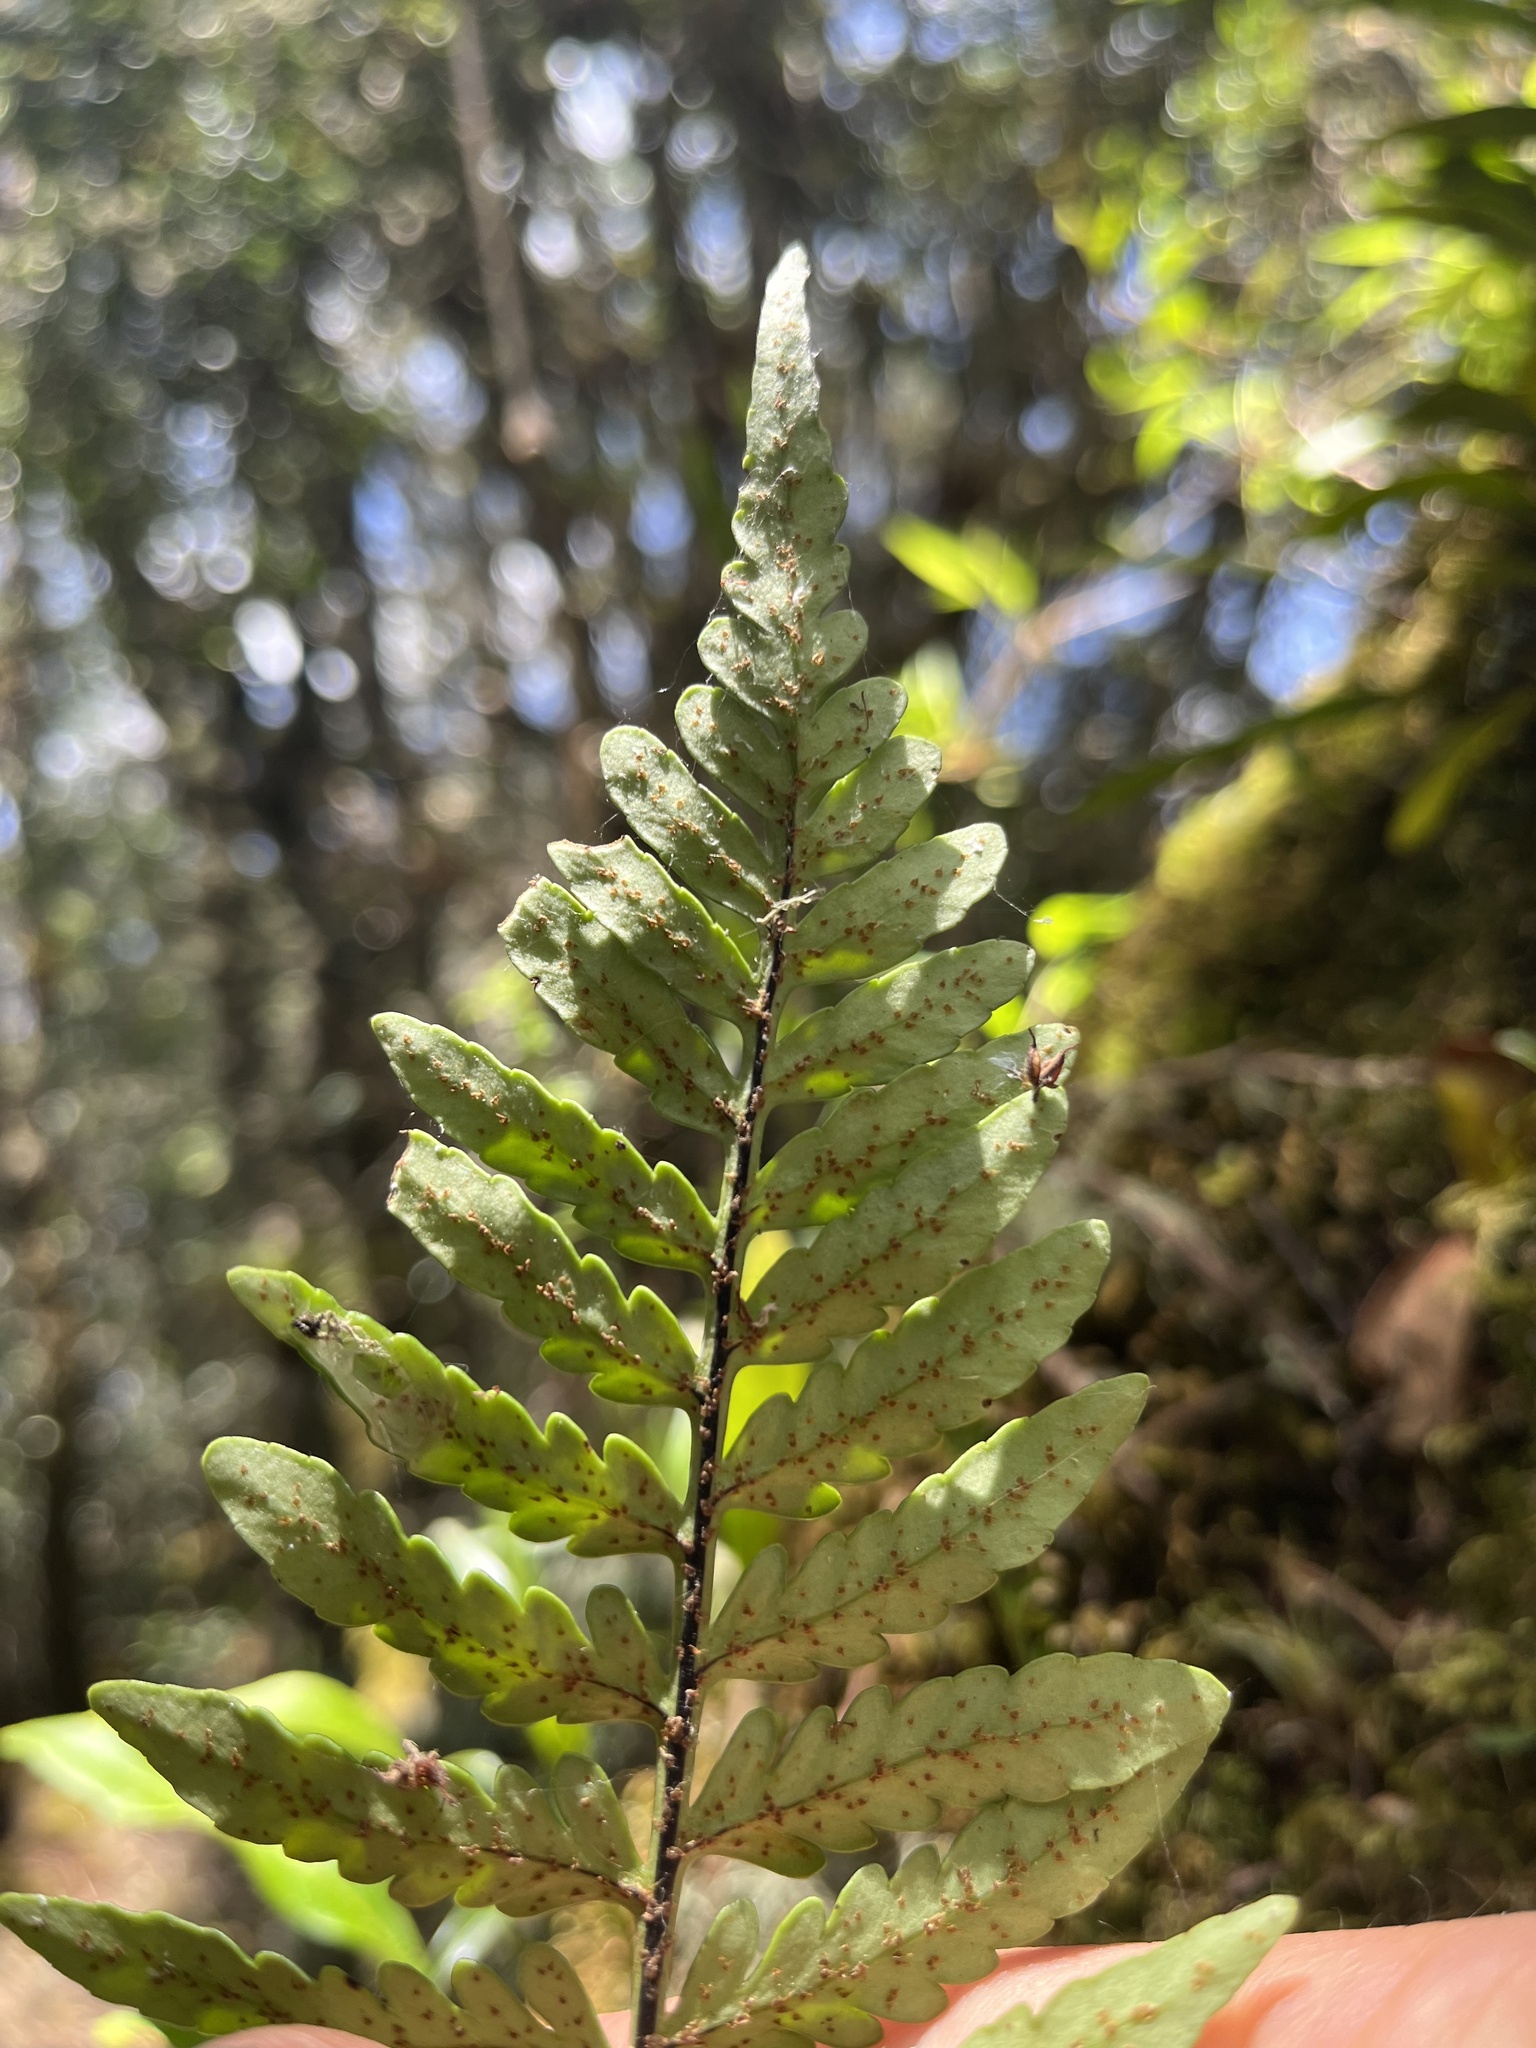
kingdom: Plantae
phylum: Tracheophyta
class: Polypodiopsida
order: Polypodiales
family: Polypodiaceae
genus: Pleopeltis
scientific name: Pleopeltis murora
